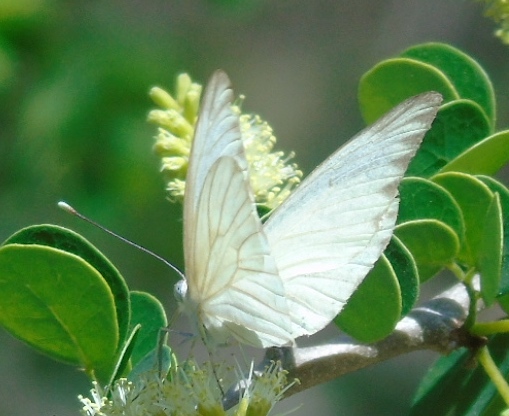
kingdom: Animalia
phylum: Arthropoda
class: Insecta
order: Lepidoptera
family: Pieridae
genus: Ascia
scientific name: Ascia monuste
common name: Great southern white
